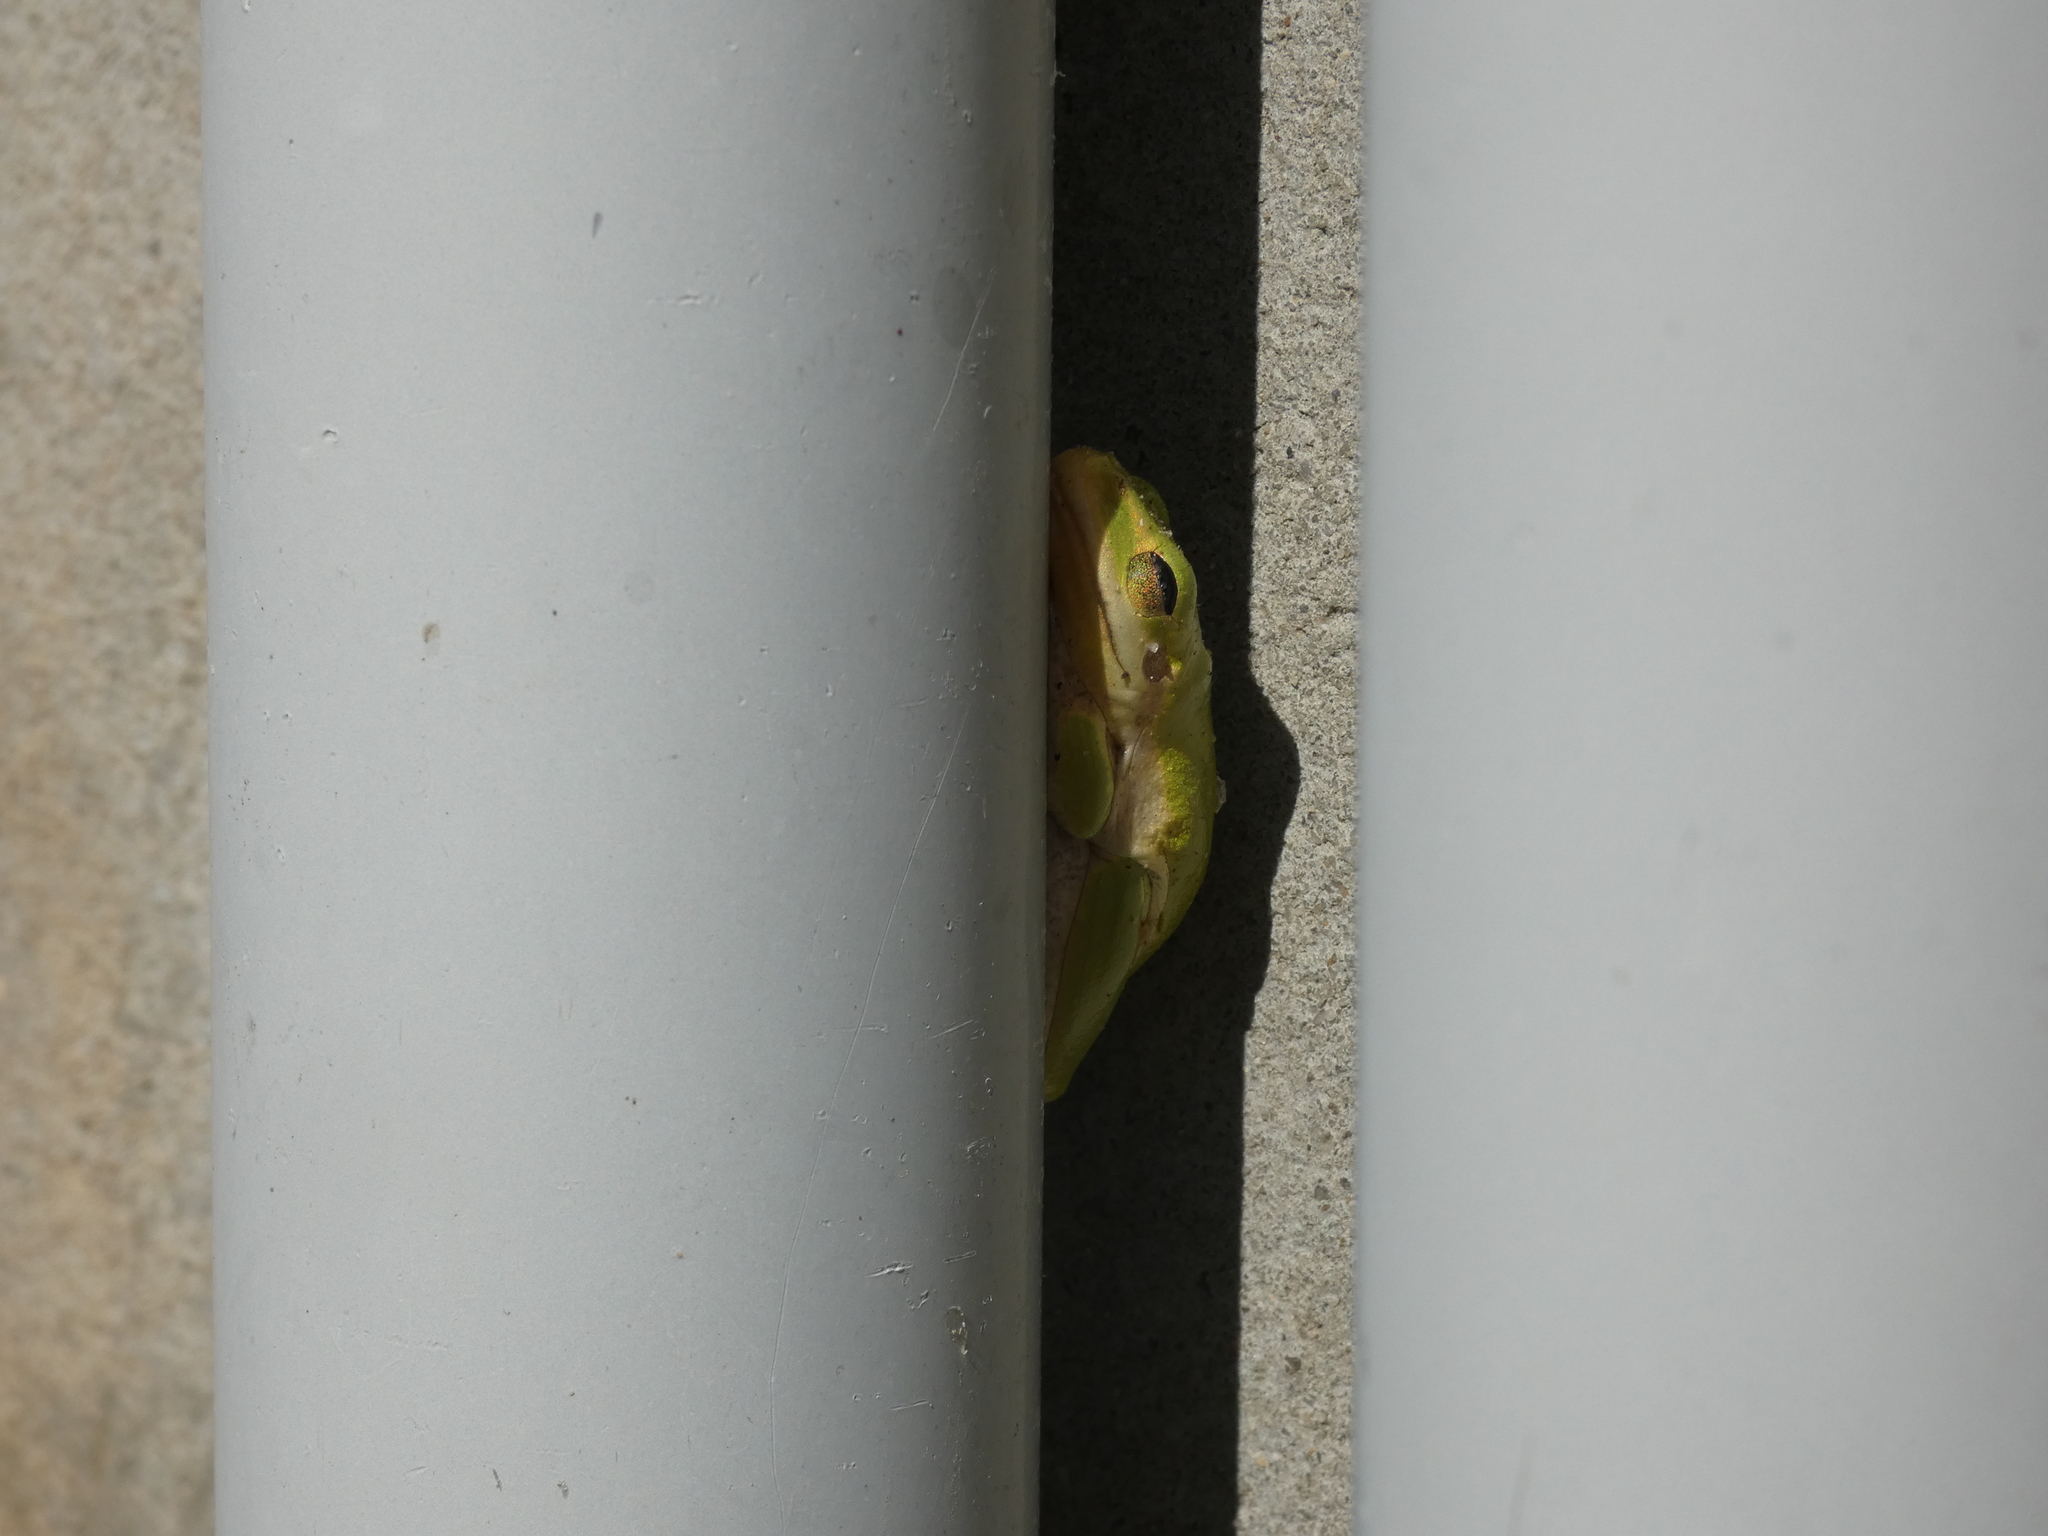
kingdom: Animalia
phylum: Chordata
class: Amphibia
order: Anura
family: Hylidae
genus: Dryophytes
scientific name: Dryophytes squirellus
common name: Squirrel treefrog
